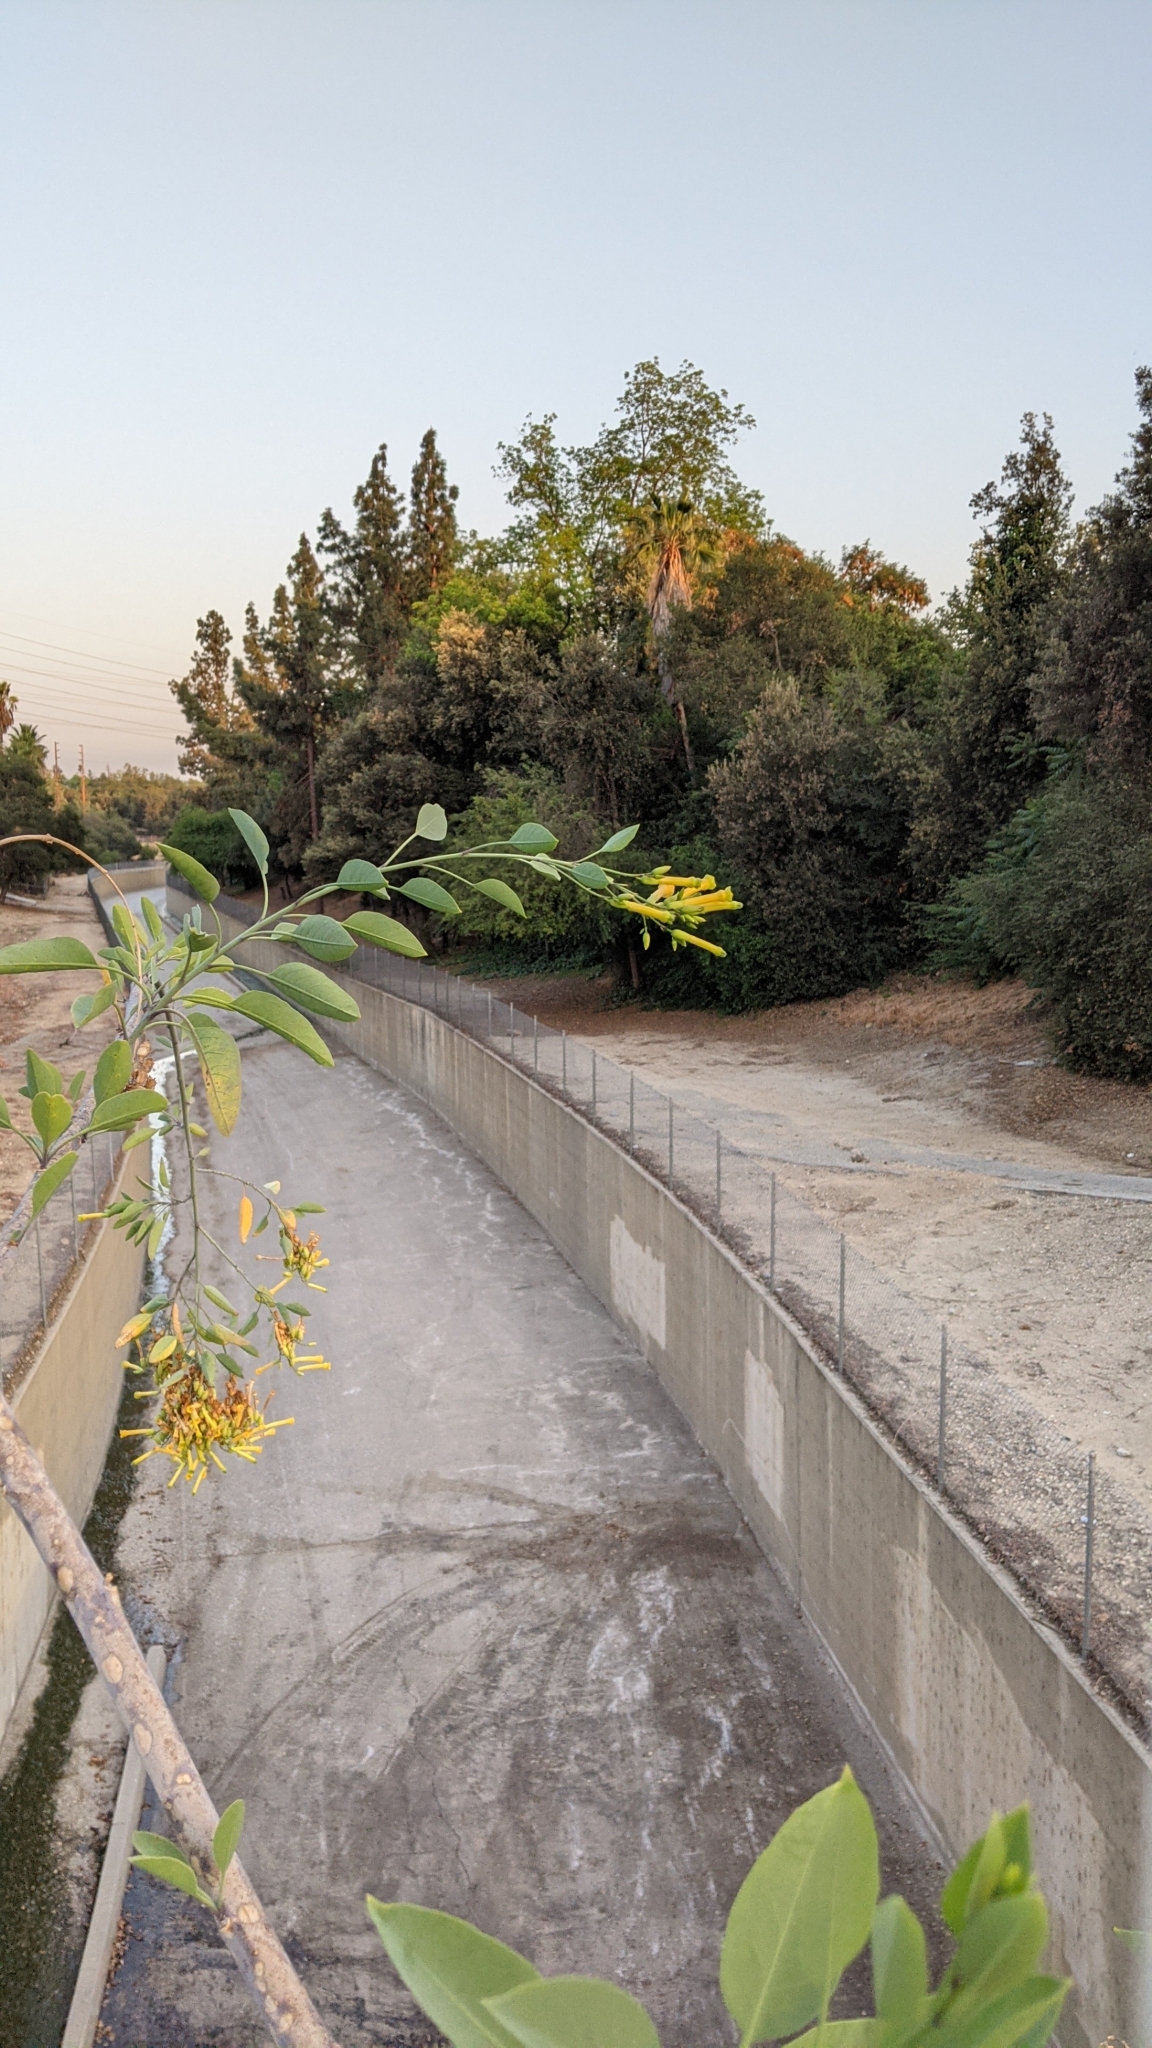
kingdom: Plantae
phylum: Tracheophyta
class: Magnoliopsida
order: Solanales
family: Solanaceae
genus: Nicotiana
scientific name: Nicotiana glauca
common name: Tree tobacco
